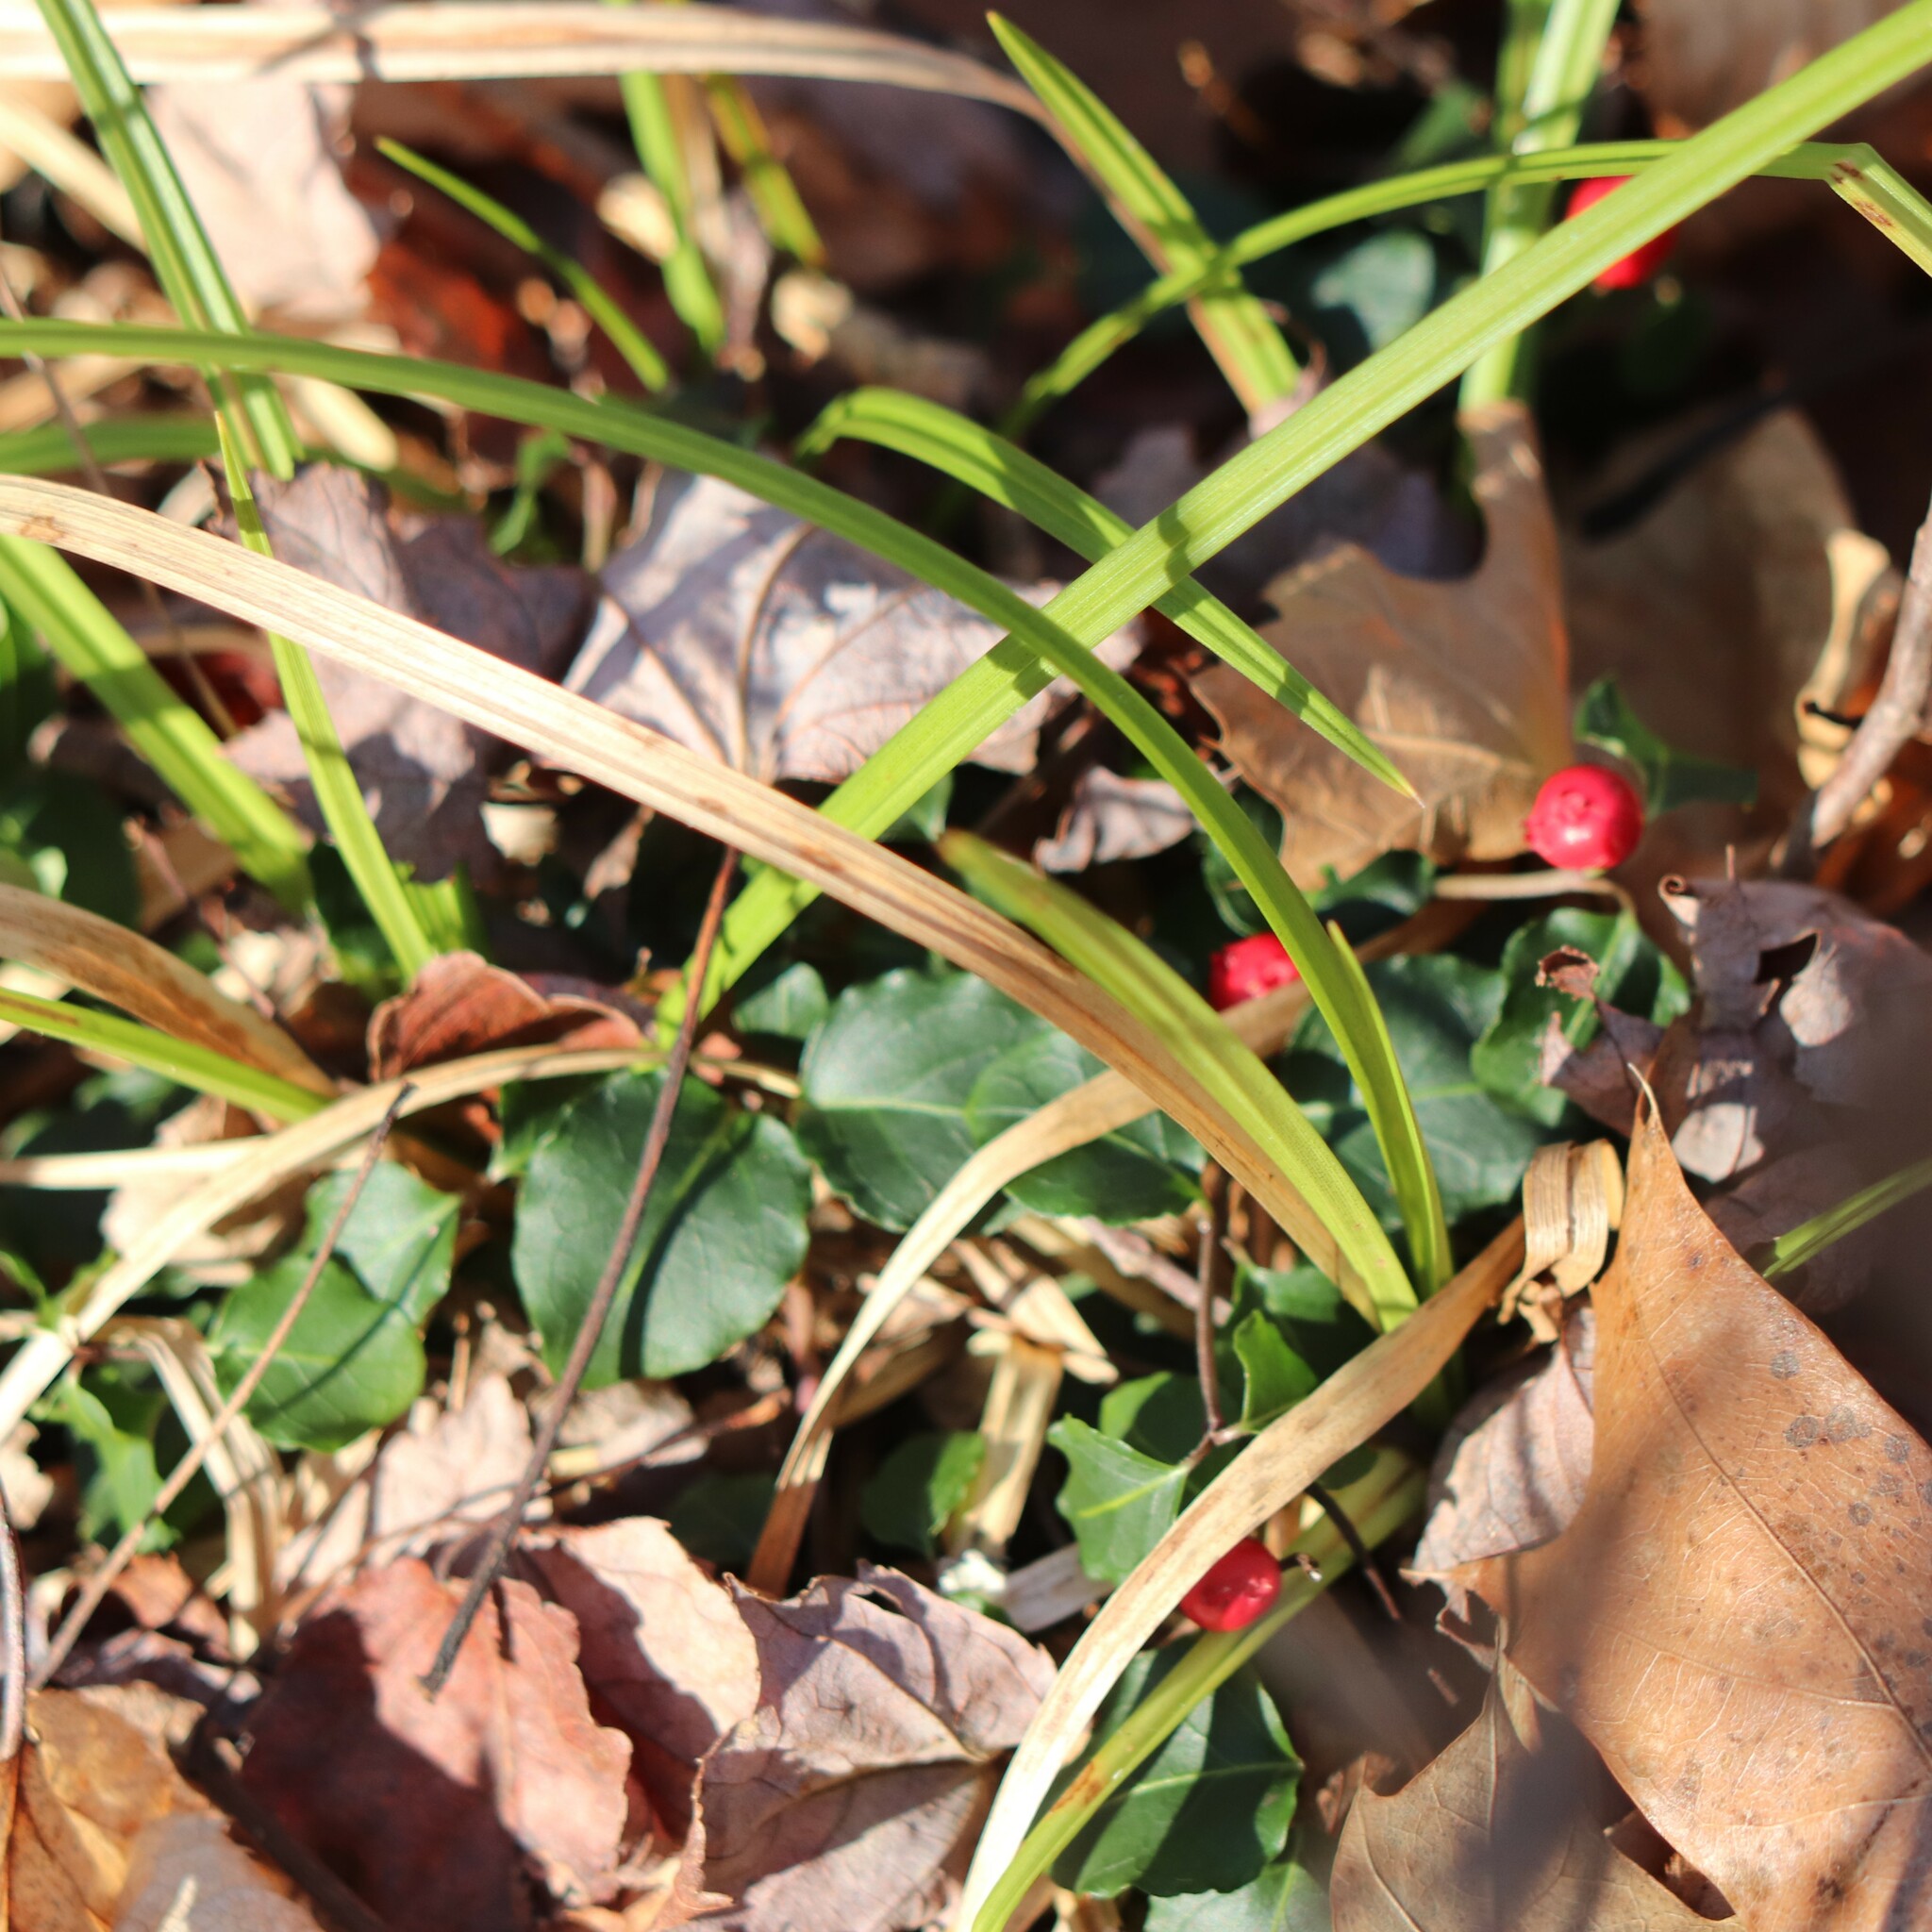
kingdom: Plantae
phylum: Tracheophyta
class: Magnoliopsida
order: Gentianales
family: Rubiaceae
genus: Mitchella
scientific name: Mitchella repens
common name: Partridge-berry
